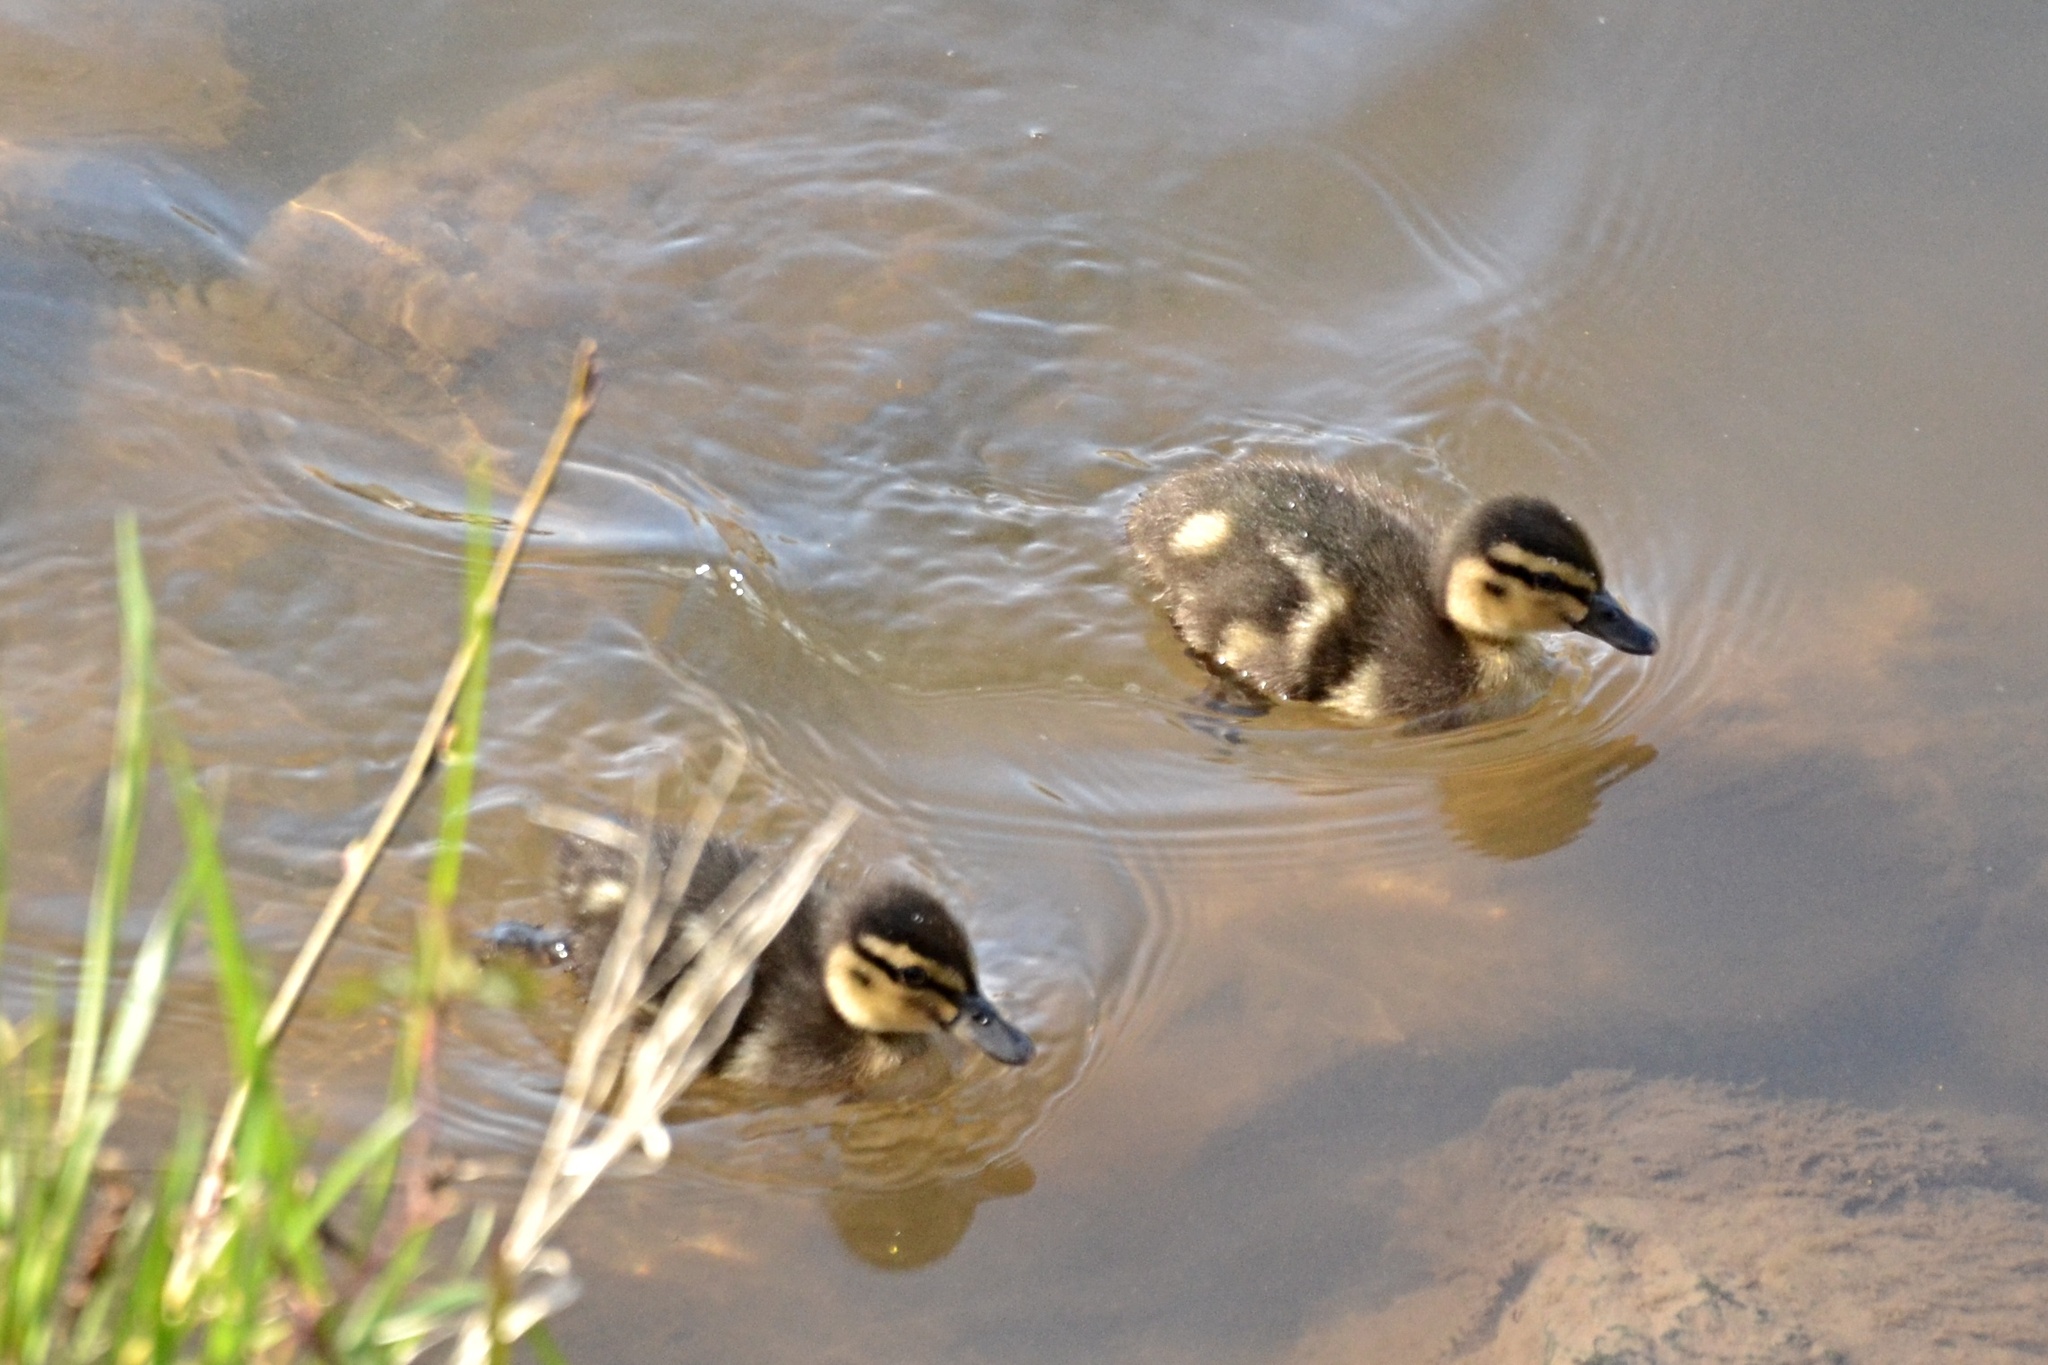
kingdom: Animalia
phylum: Chordata
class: Aves
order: Anseriformes
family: Anatidae
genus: Anas
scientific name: Anas platyrhynchos
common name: Mallard
